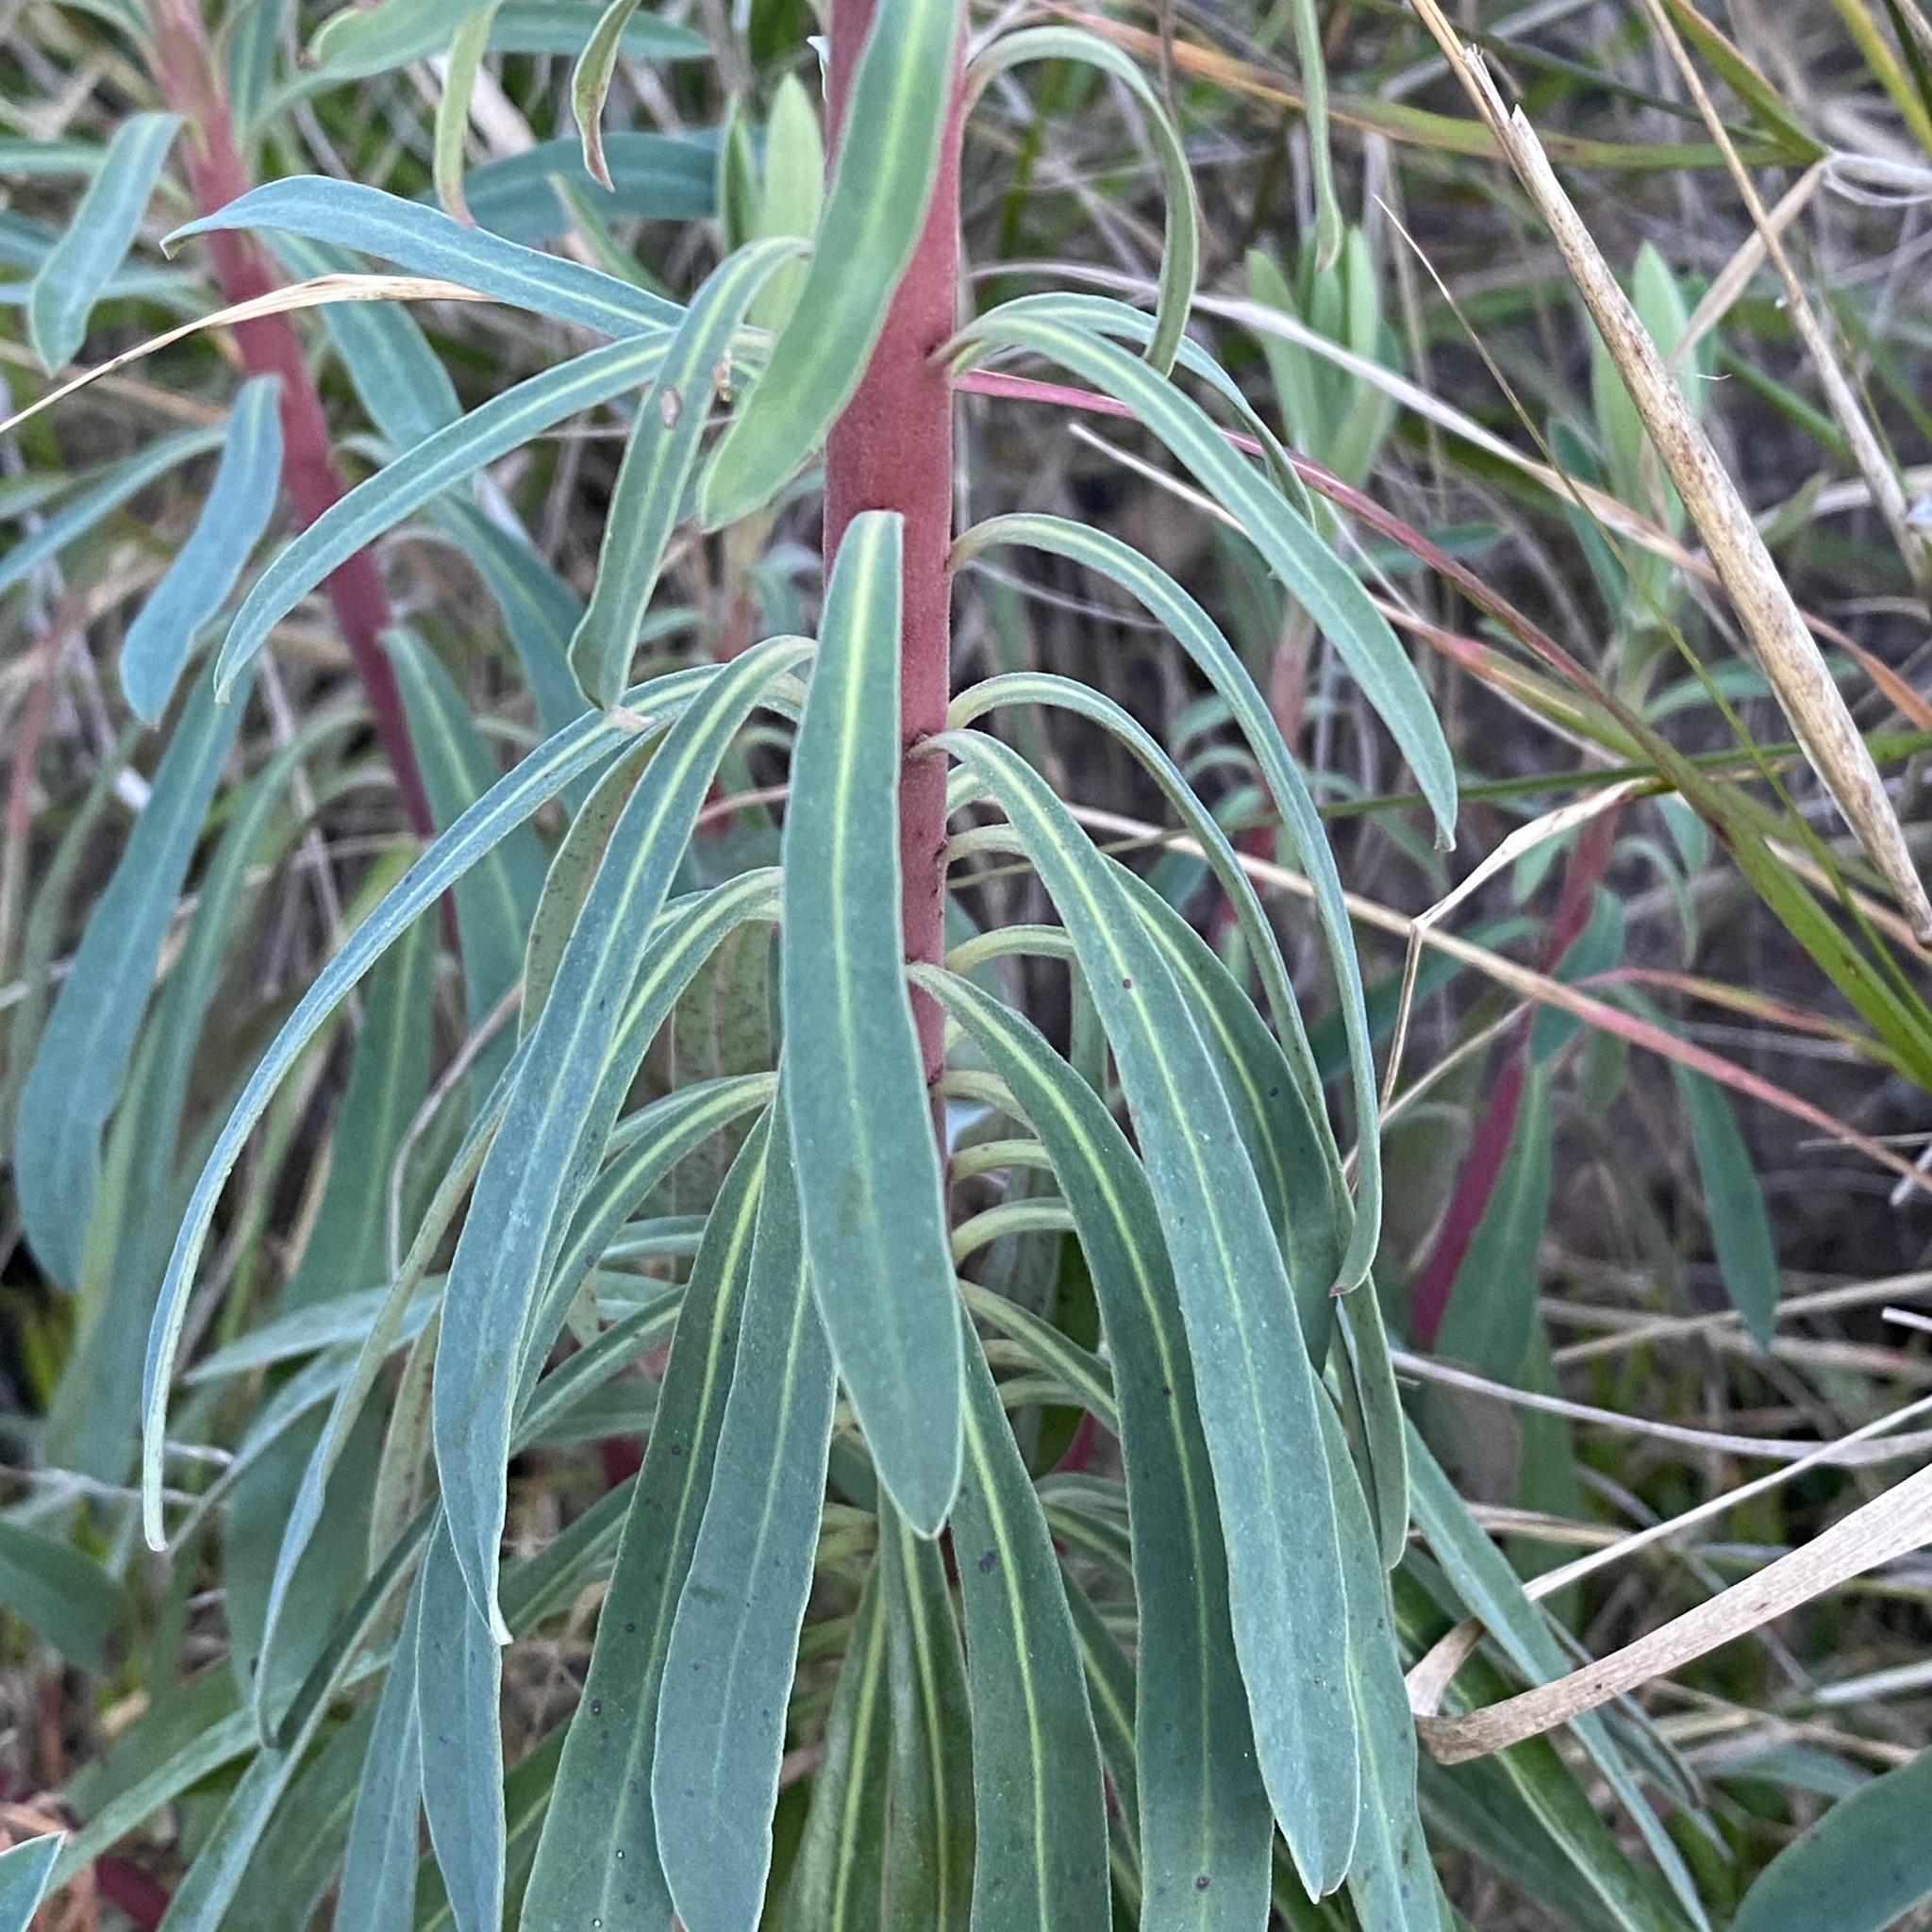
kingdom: Plantae
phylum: Tracheophyta
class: Magnoliopsida
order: Malpighiales
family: Euphorbiaceae
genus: Euphorbia
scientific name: Euphorbia characias
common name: Mediterranean spurge
